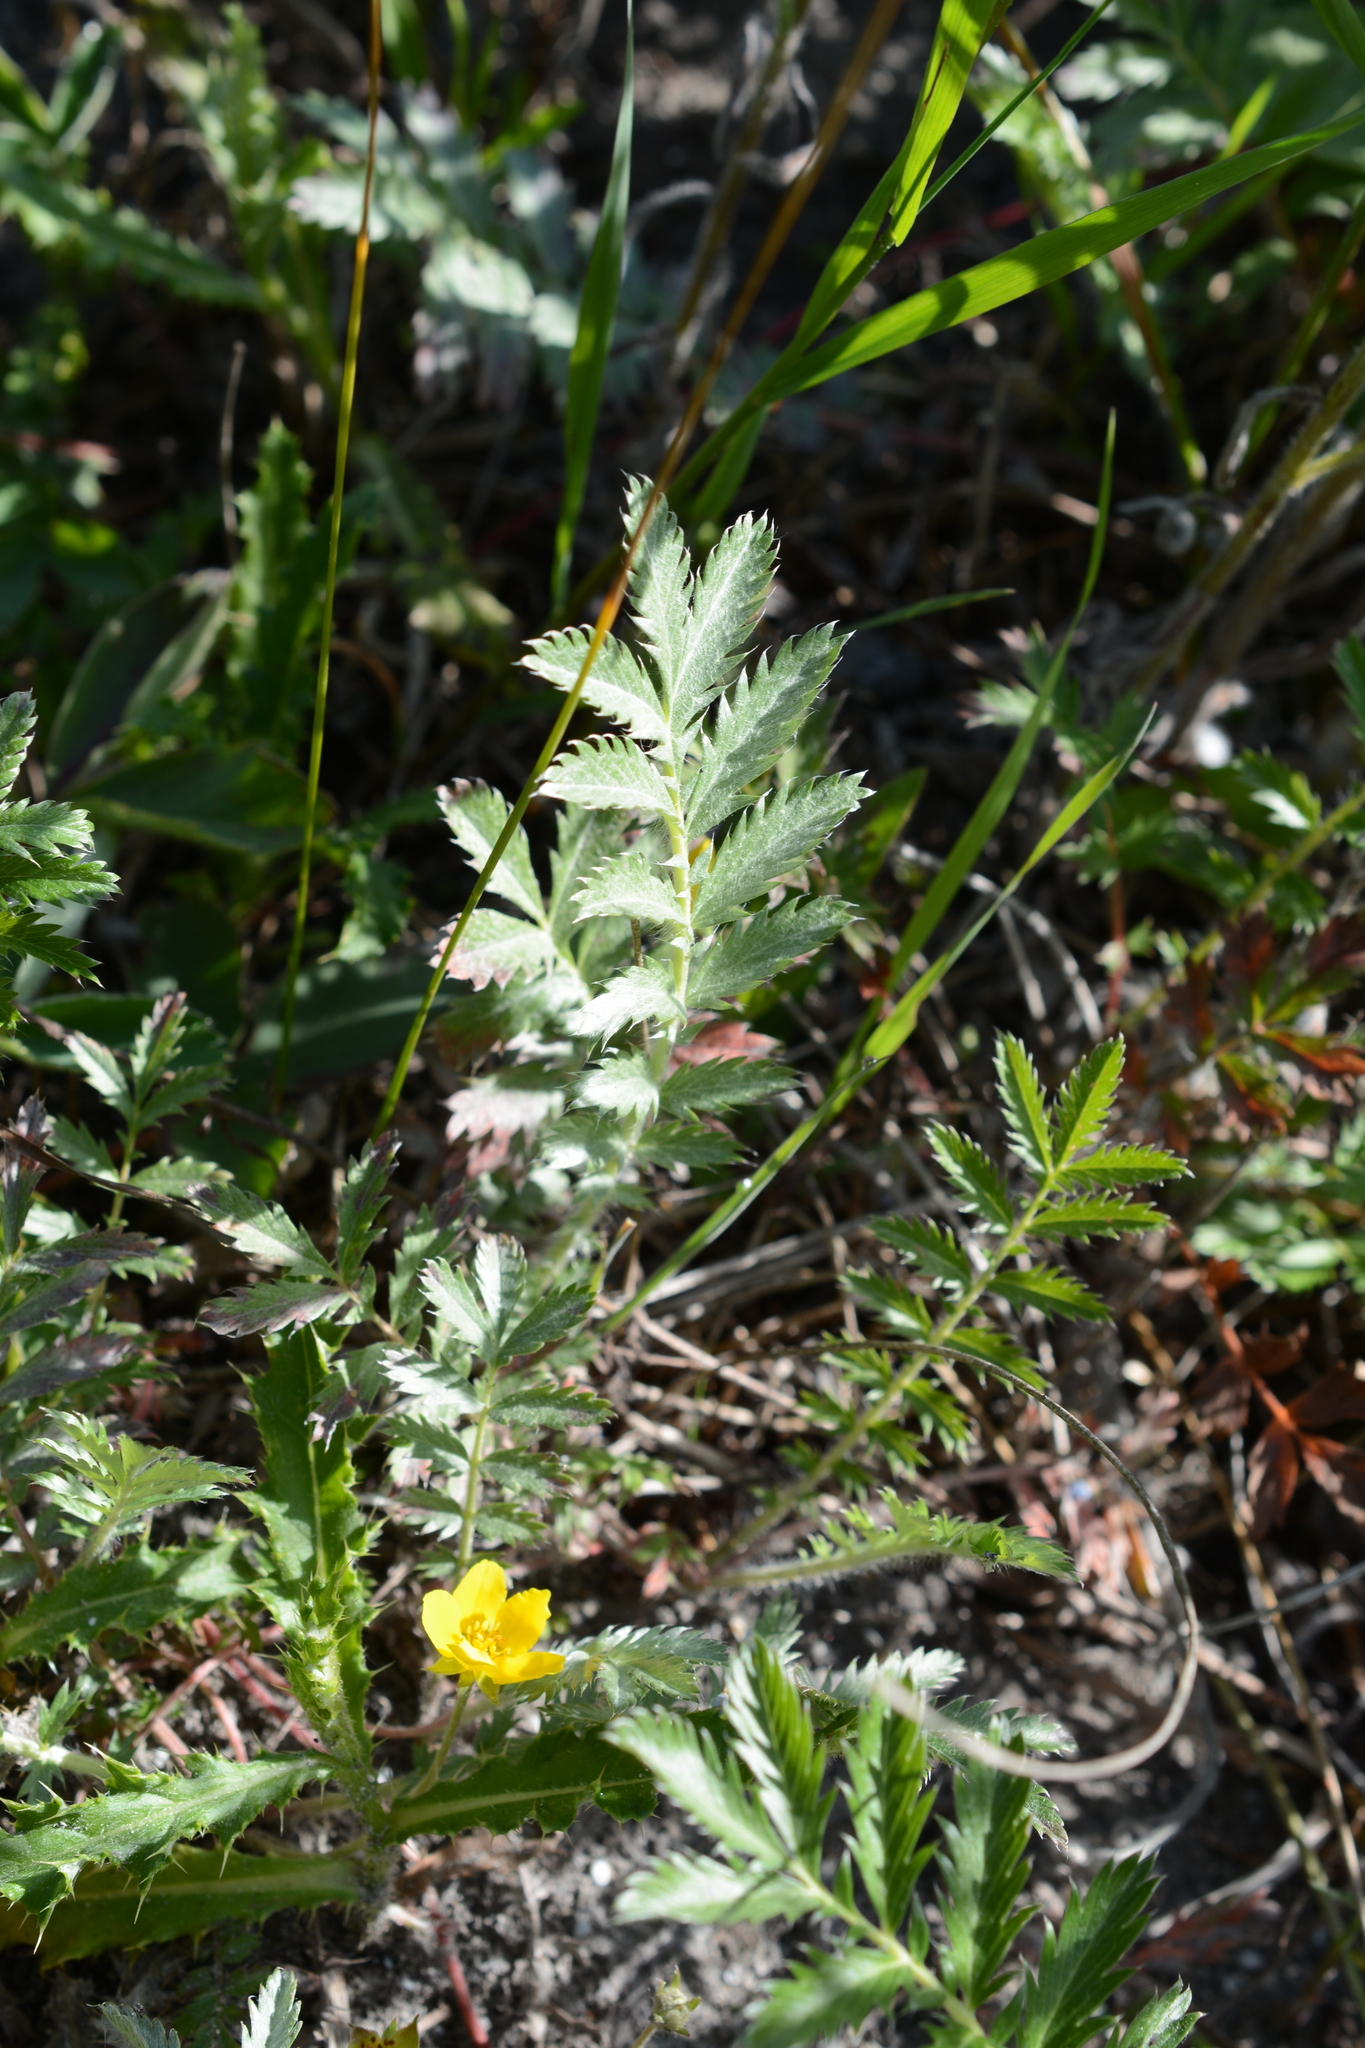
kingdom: Plantae
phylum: Tracheophyta
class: Magnoliopsida
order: Rosales
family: Rosaceae
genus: Argentina
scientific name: Argentina anserina
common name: Common silverweed
